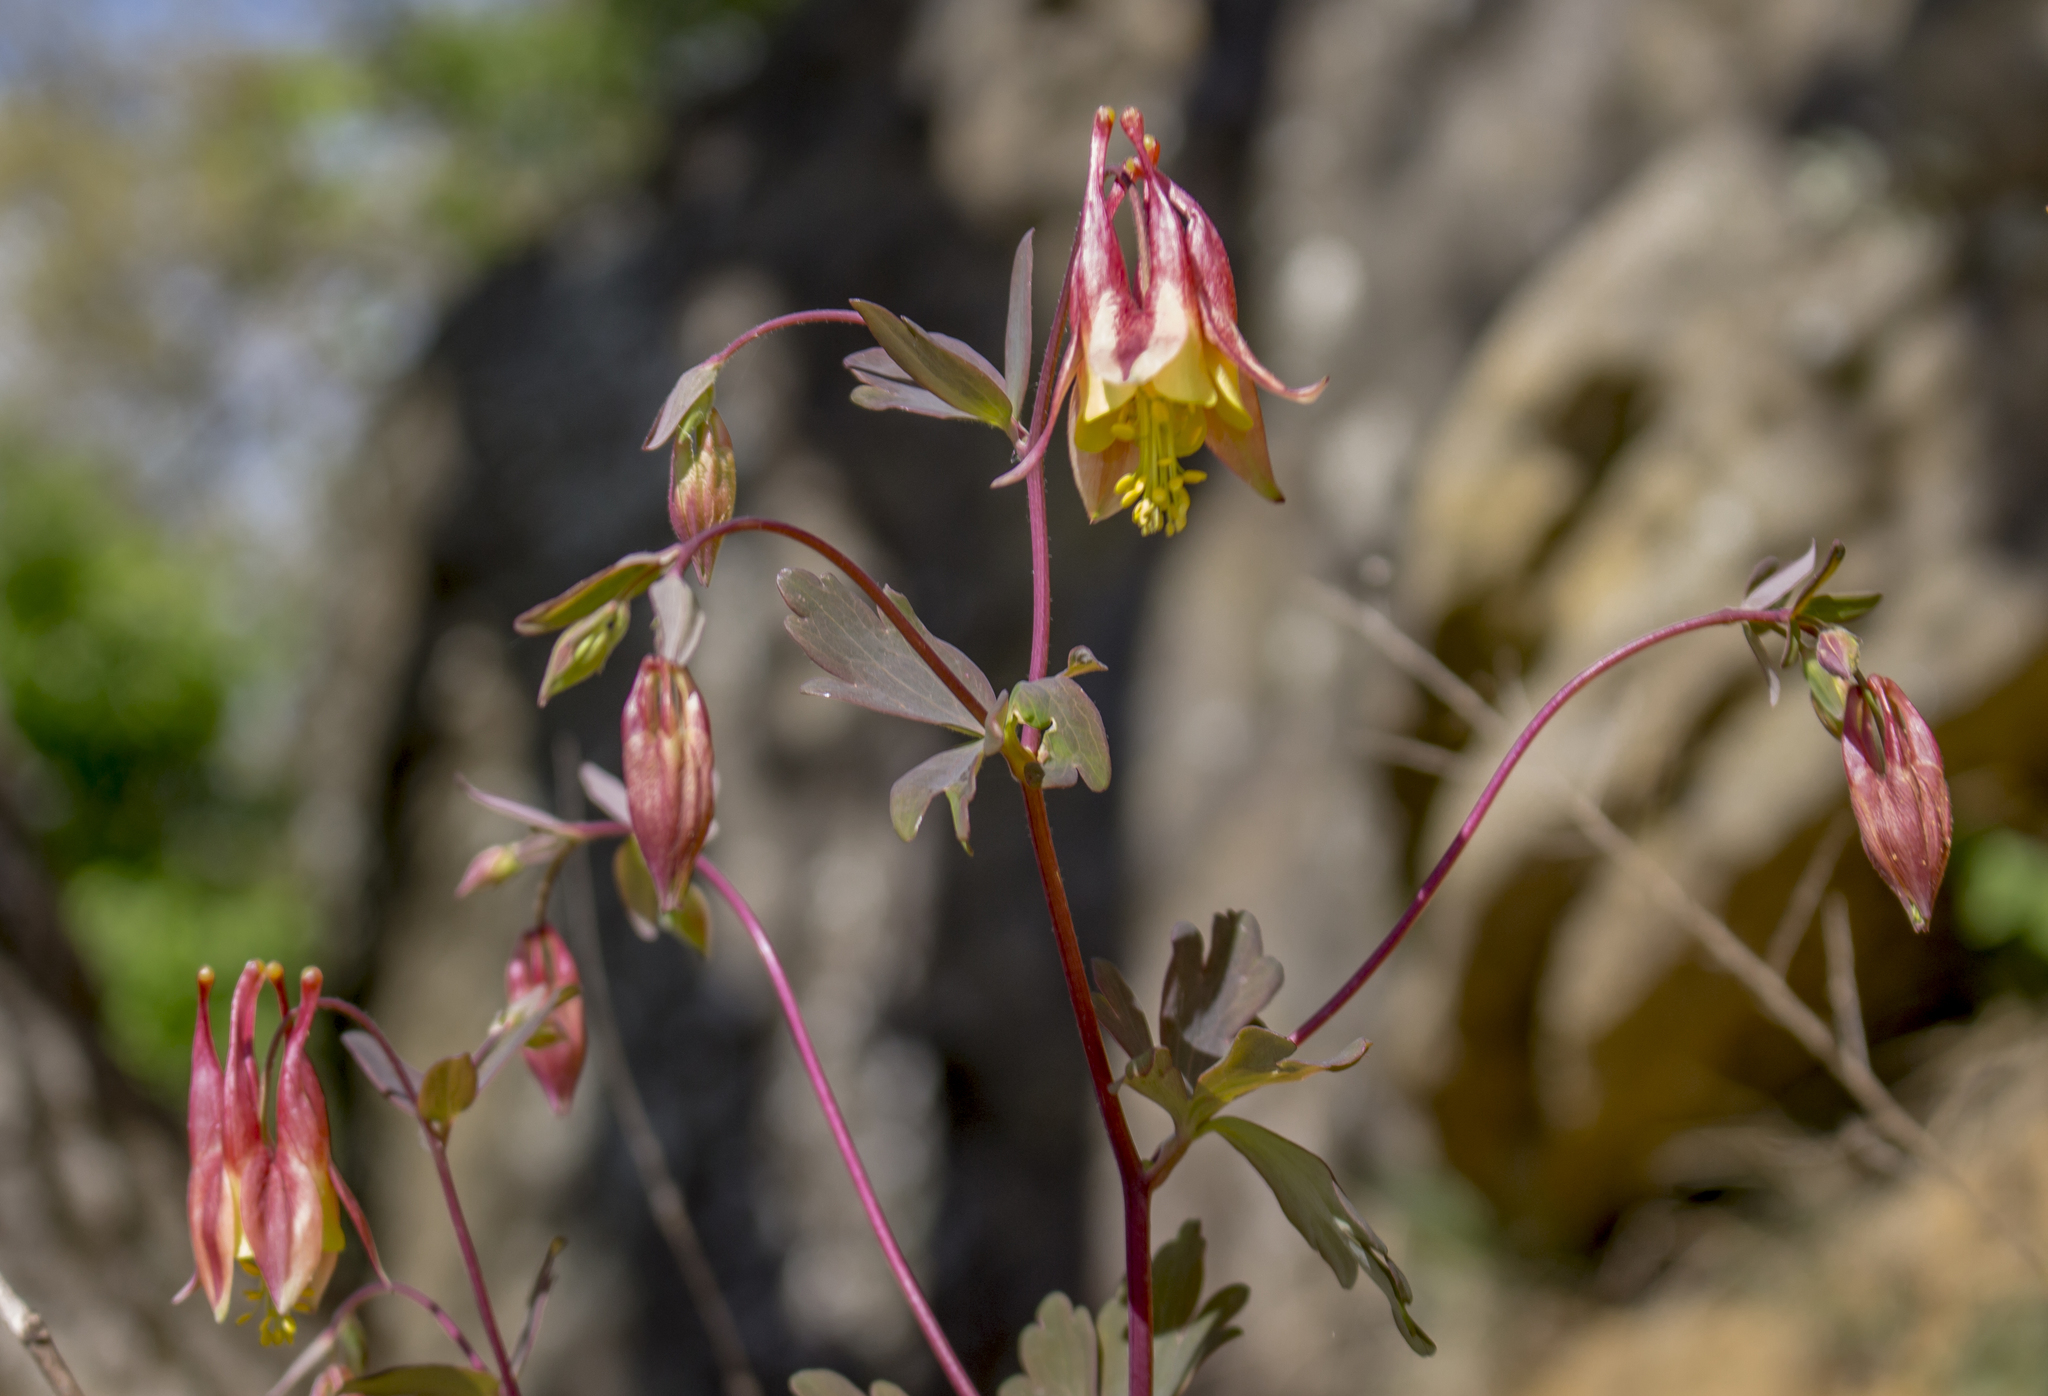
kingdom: Plantae
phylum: Tracheophyta
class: Magnoliopsida
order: Ranunculales
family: Ranunculaceae
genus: Aquilegia
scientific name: Aquilegia canadensis
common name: American columbine
